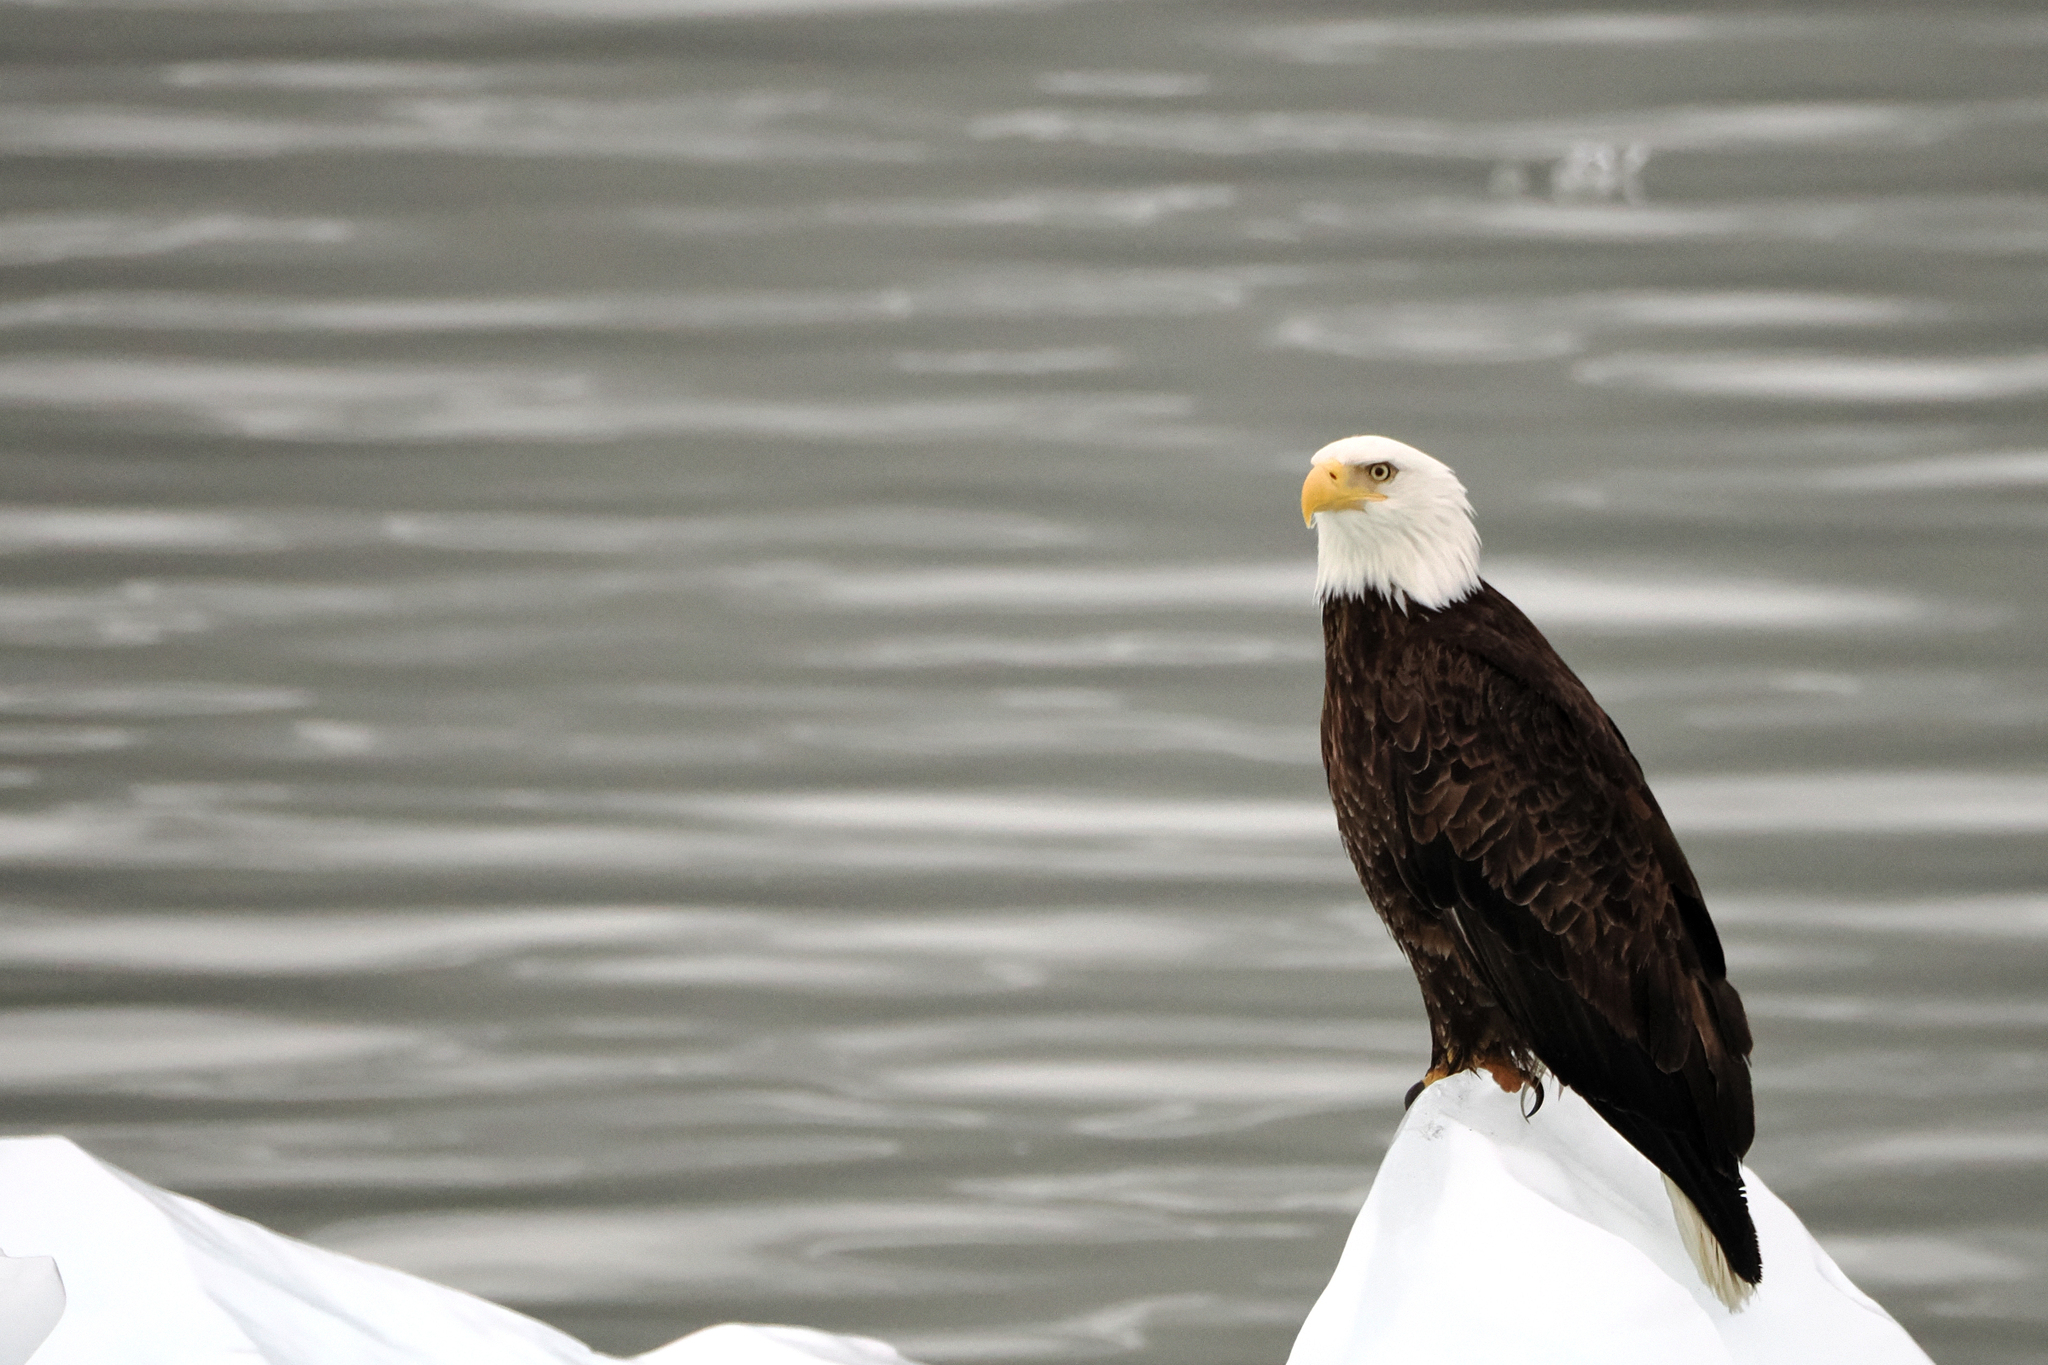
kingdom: Animalia
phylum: Chordata
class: Aves
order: Accipitriformes
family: Accipitridae
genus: Haliaeetus
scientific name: Haliaeetus leucocephalus
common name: Bald eagle
